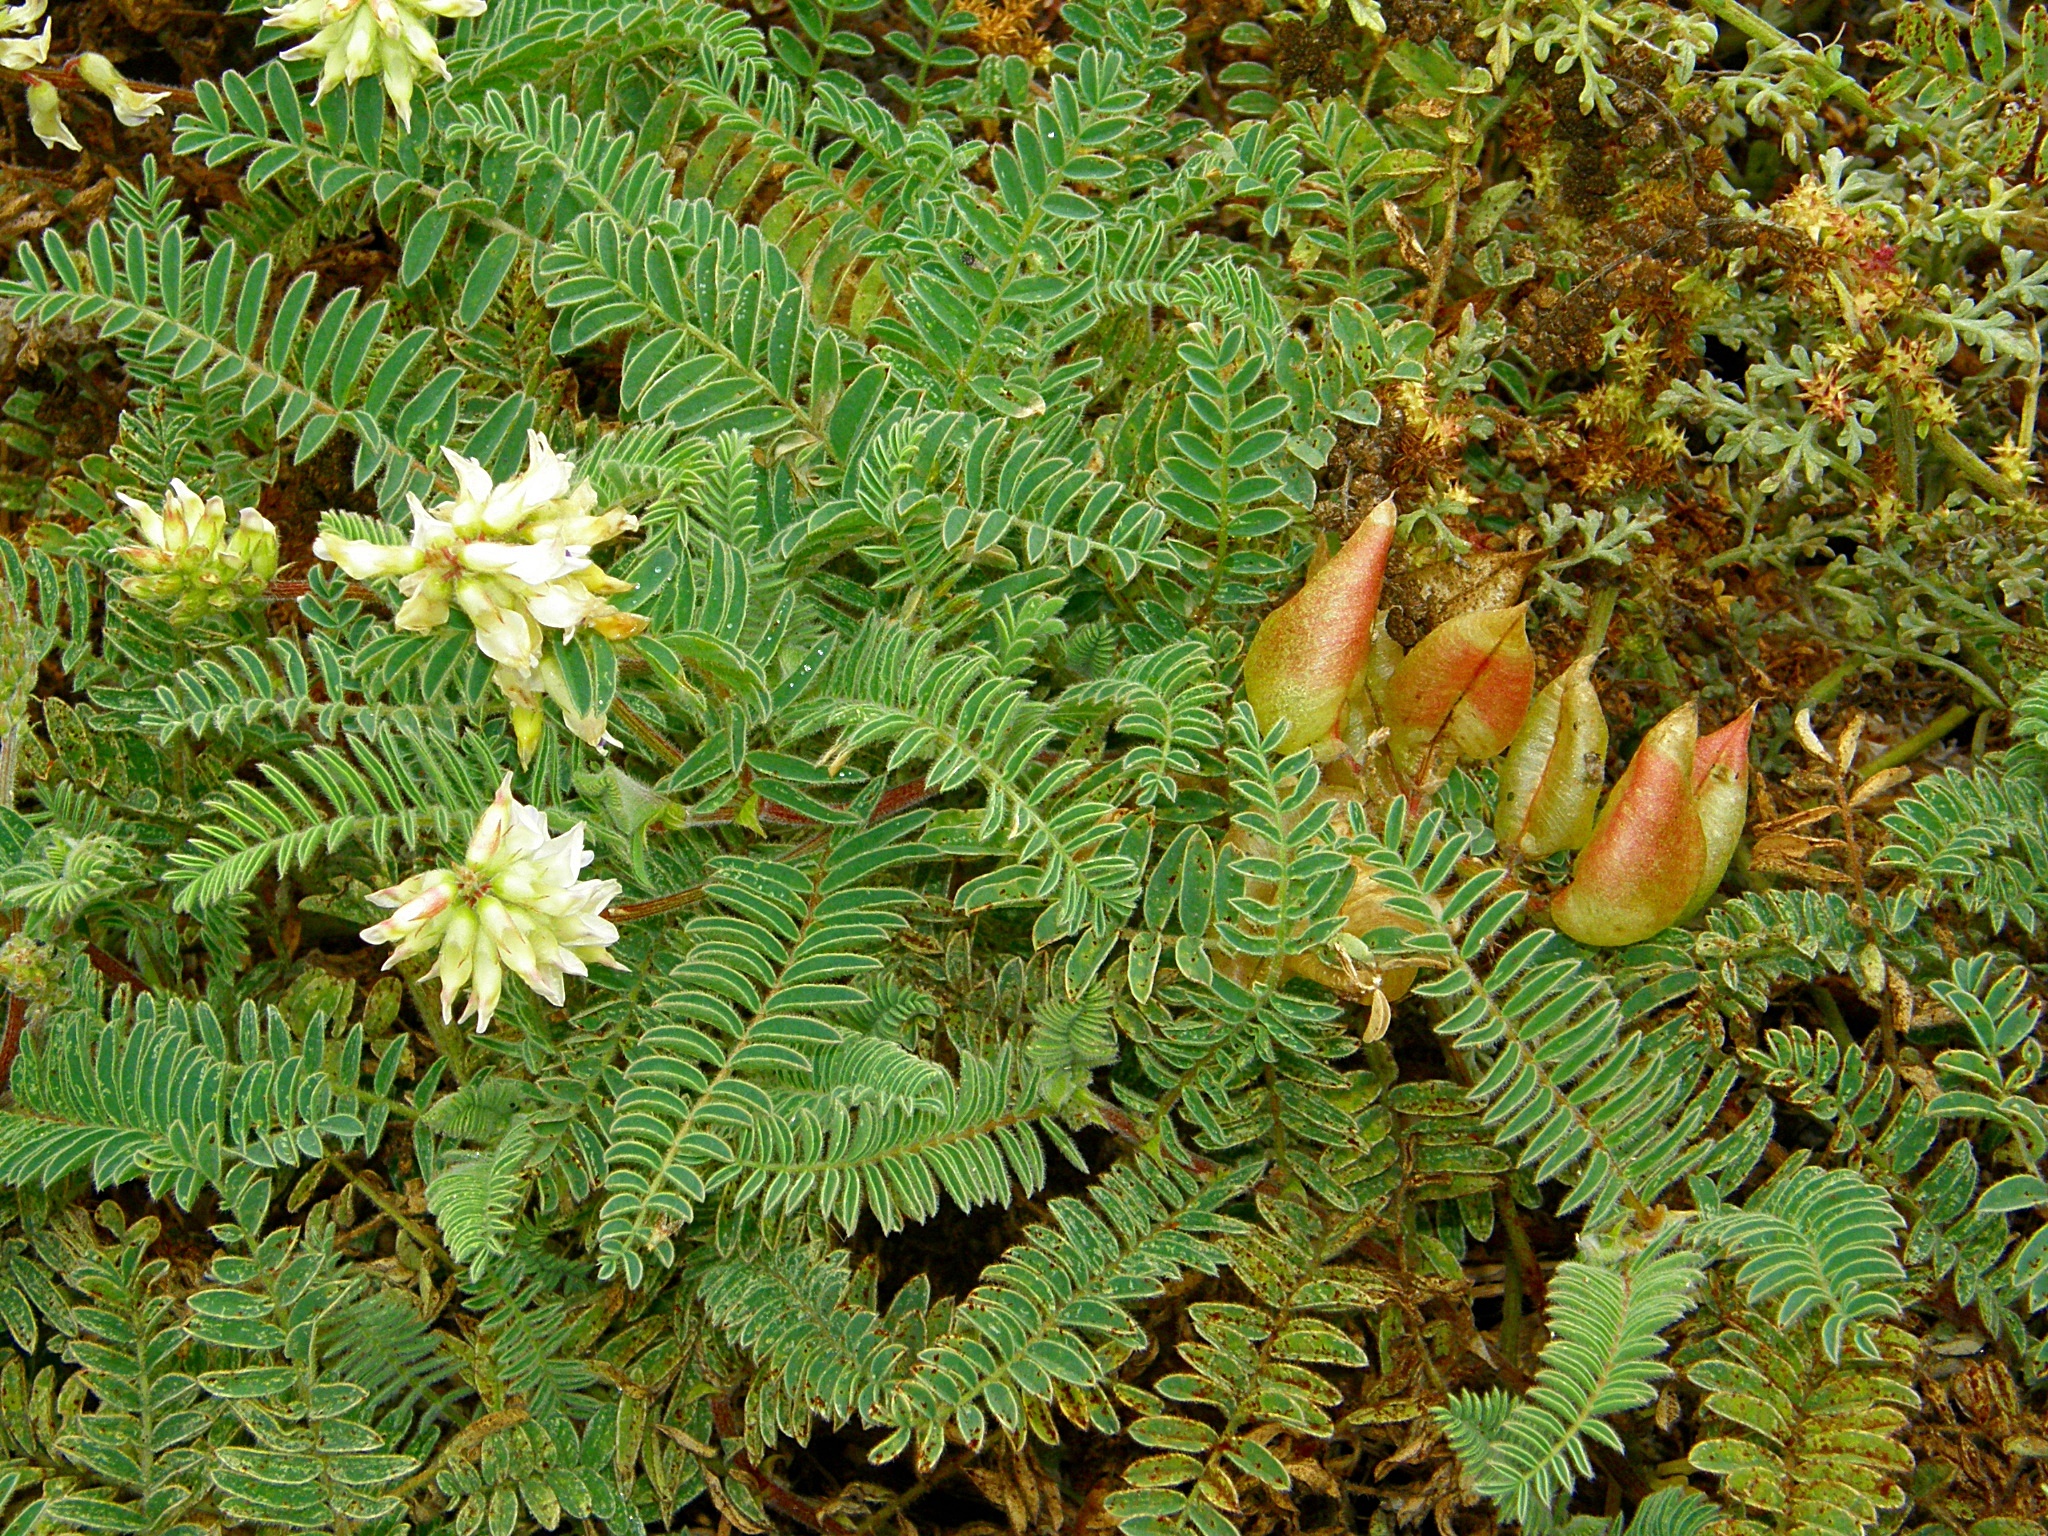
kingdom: Plantae
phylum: Tracheophyta
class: Magnoliopsida
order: Fabales
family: Fabaceae
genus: Astragalus
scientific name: Astragalus nuttallii
